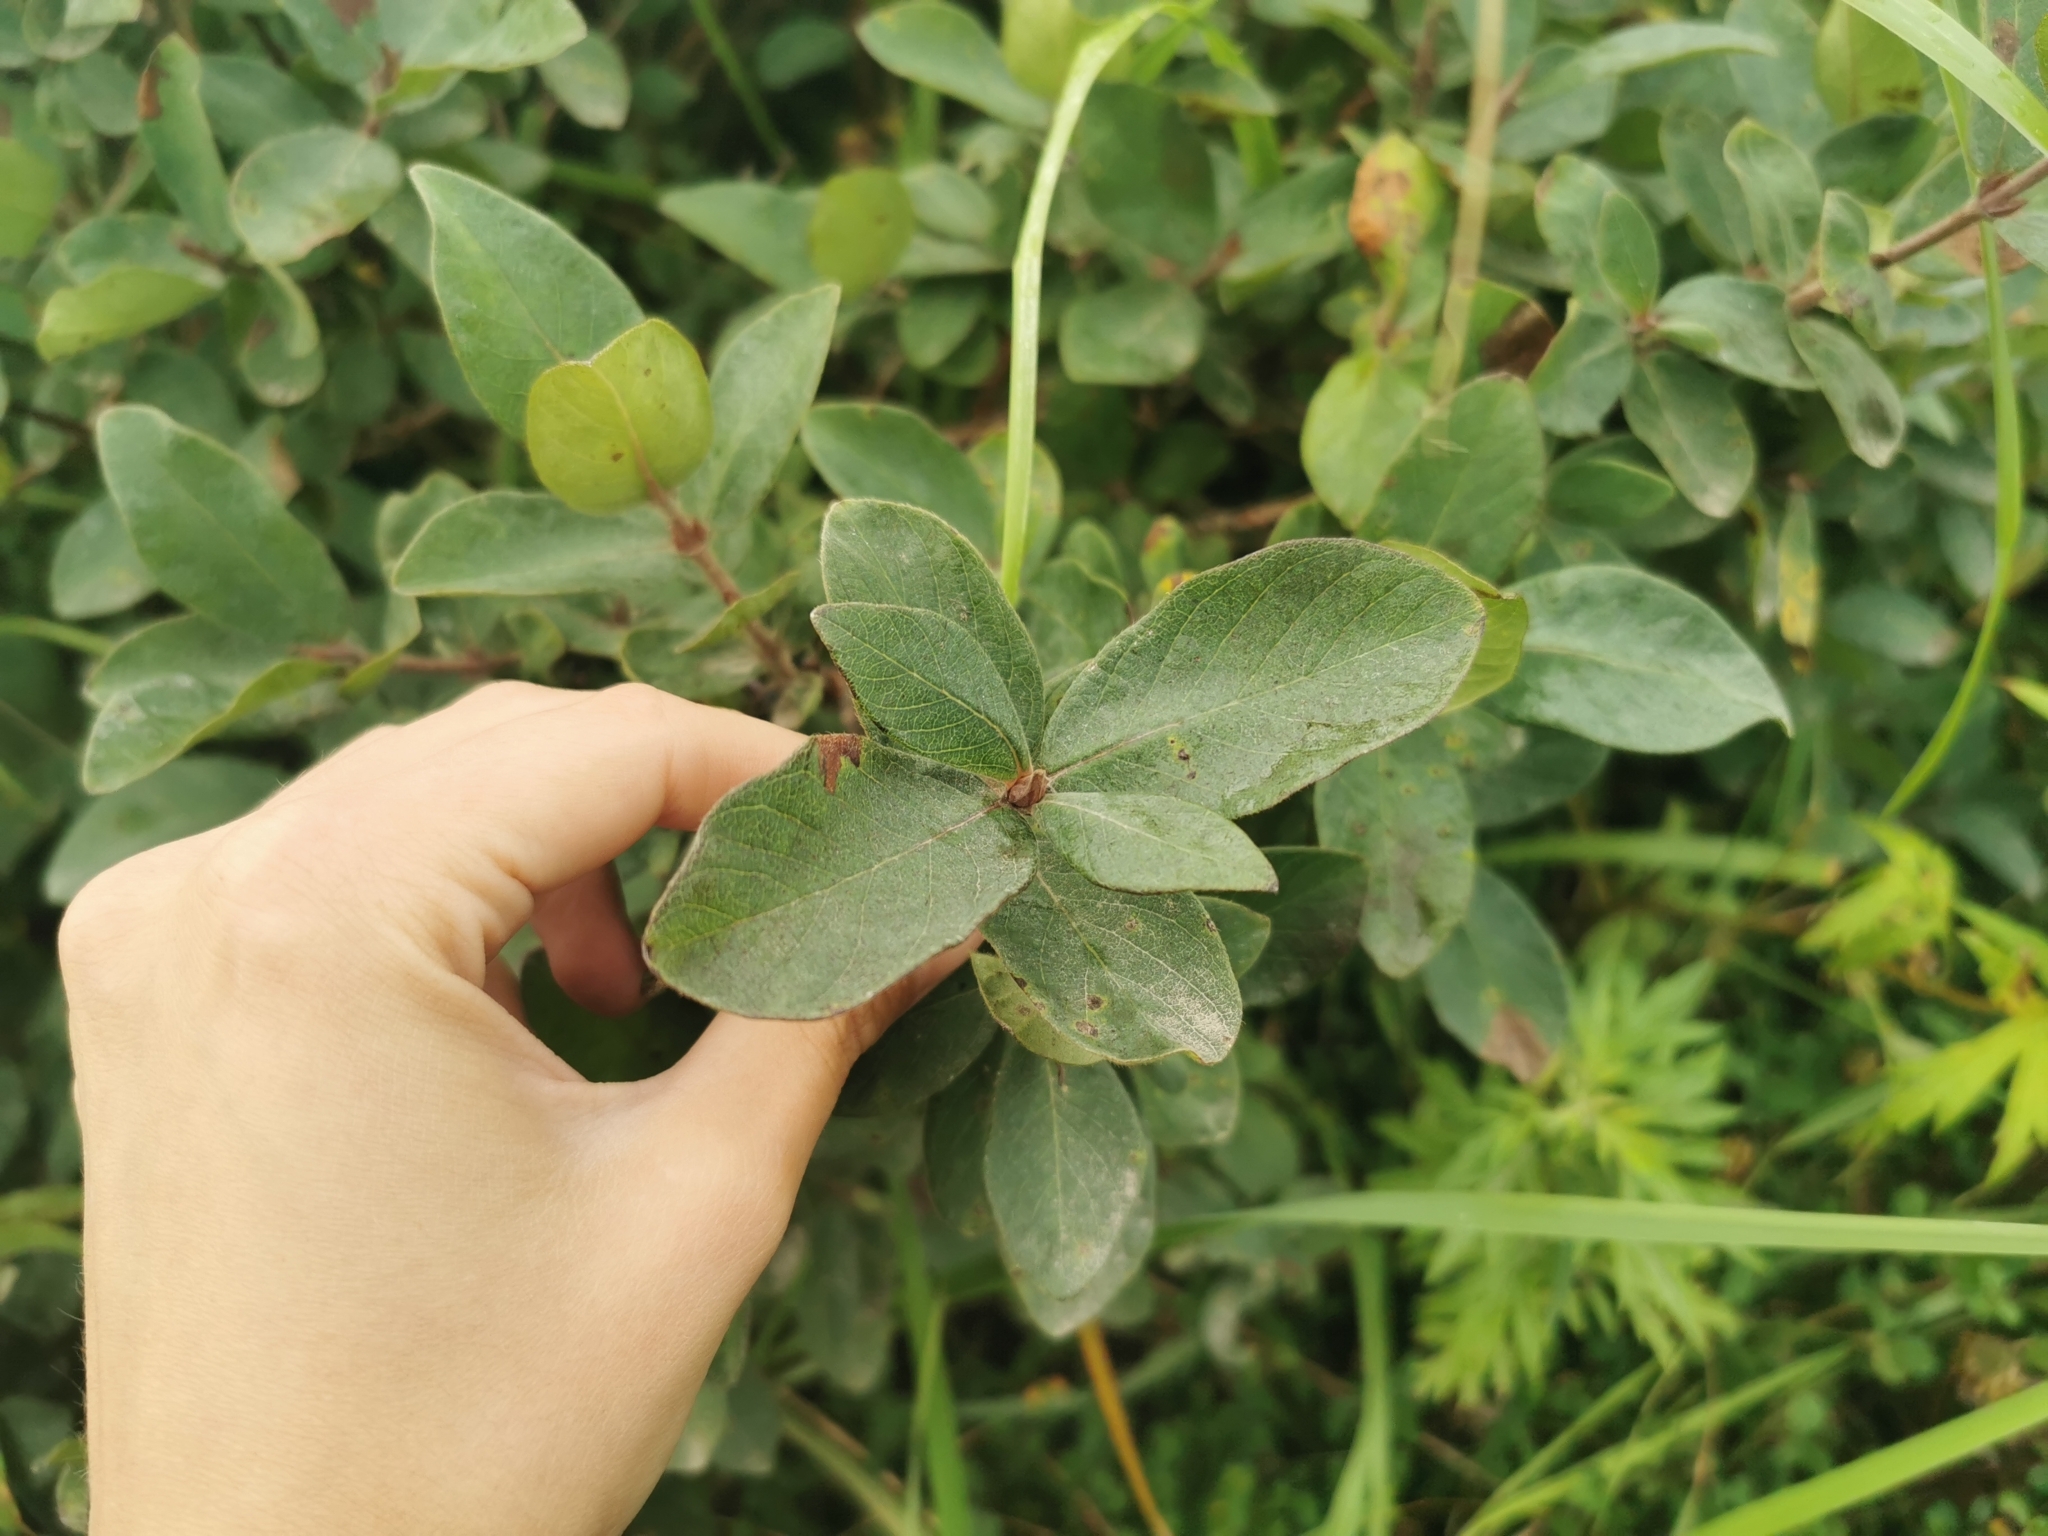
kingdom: Plantae
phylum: Tracheophyta
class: Magnoliopsida
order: Dipsacales
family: Caprifoliaceae
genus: Lonicera
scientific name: Lonicera caerulea
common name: Blue honeysuckle
